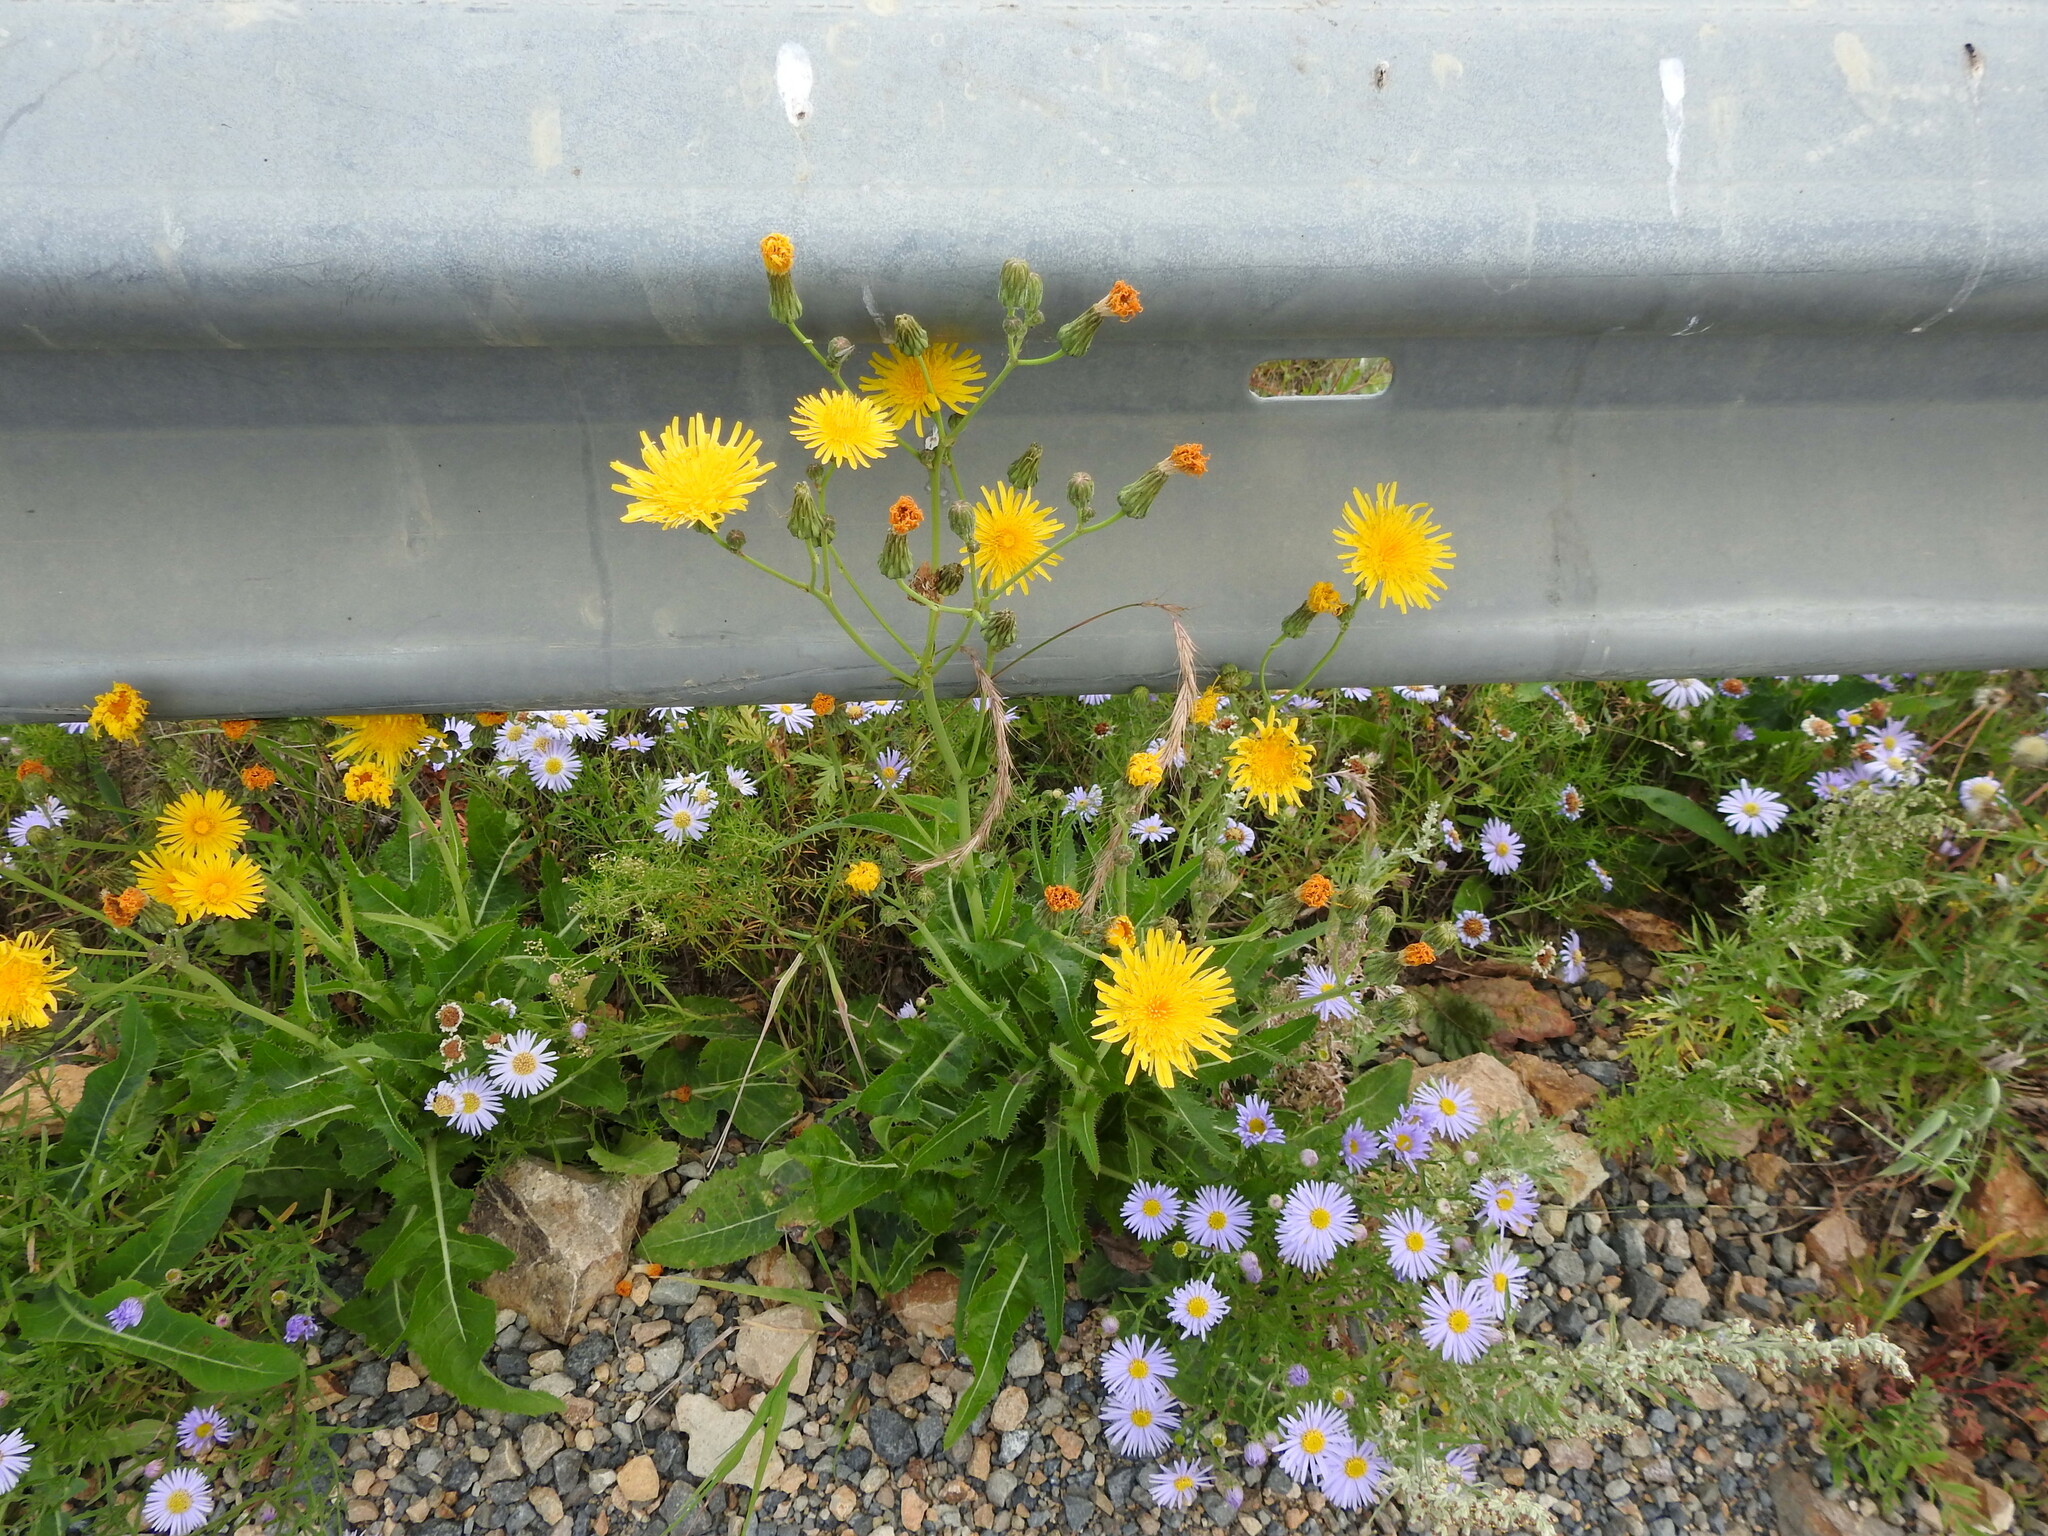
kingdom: Plantae
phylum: Tracheophyta
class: Magnoliopsida
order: Asterales
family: Asteraceae
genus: Sonchus
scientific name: Sonchus arvensis
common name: Perennial sow-thistle
